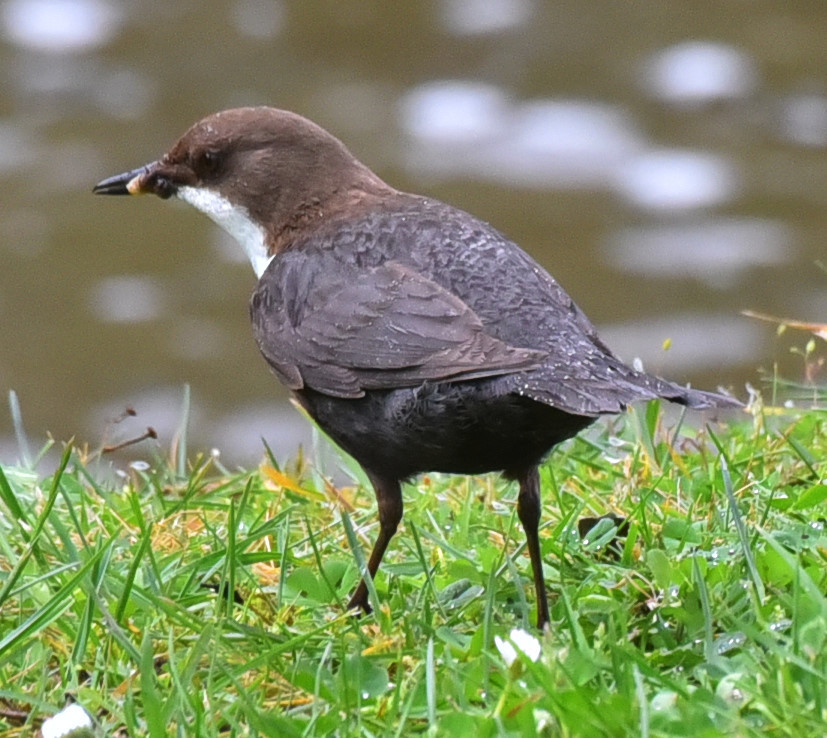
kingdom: Animalia
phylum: Chordata
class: Aves
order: Passeriformes
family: Cinclidae
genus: Cinclus
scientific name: Cinclus cinclus
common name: White-throated dipper
